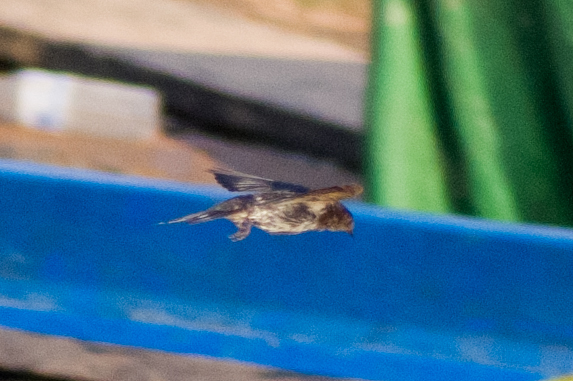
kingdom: Animalia
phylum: Chordata
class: Aves
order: Passeriformes
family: Hirundinidae
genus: Hirundo
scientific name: Hirundo rustica
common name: Barn swallow
